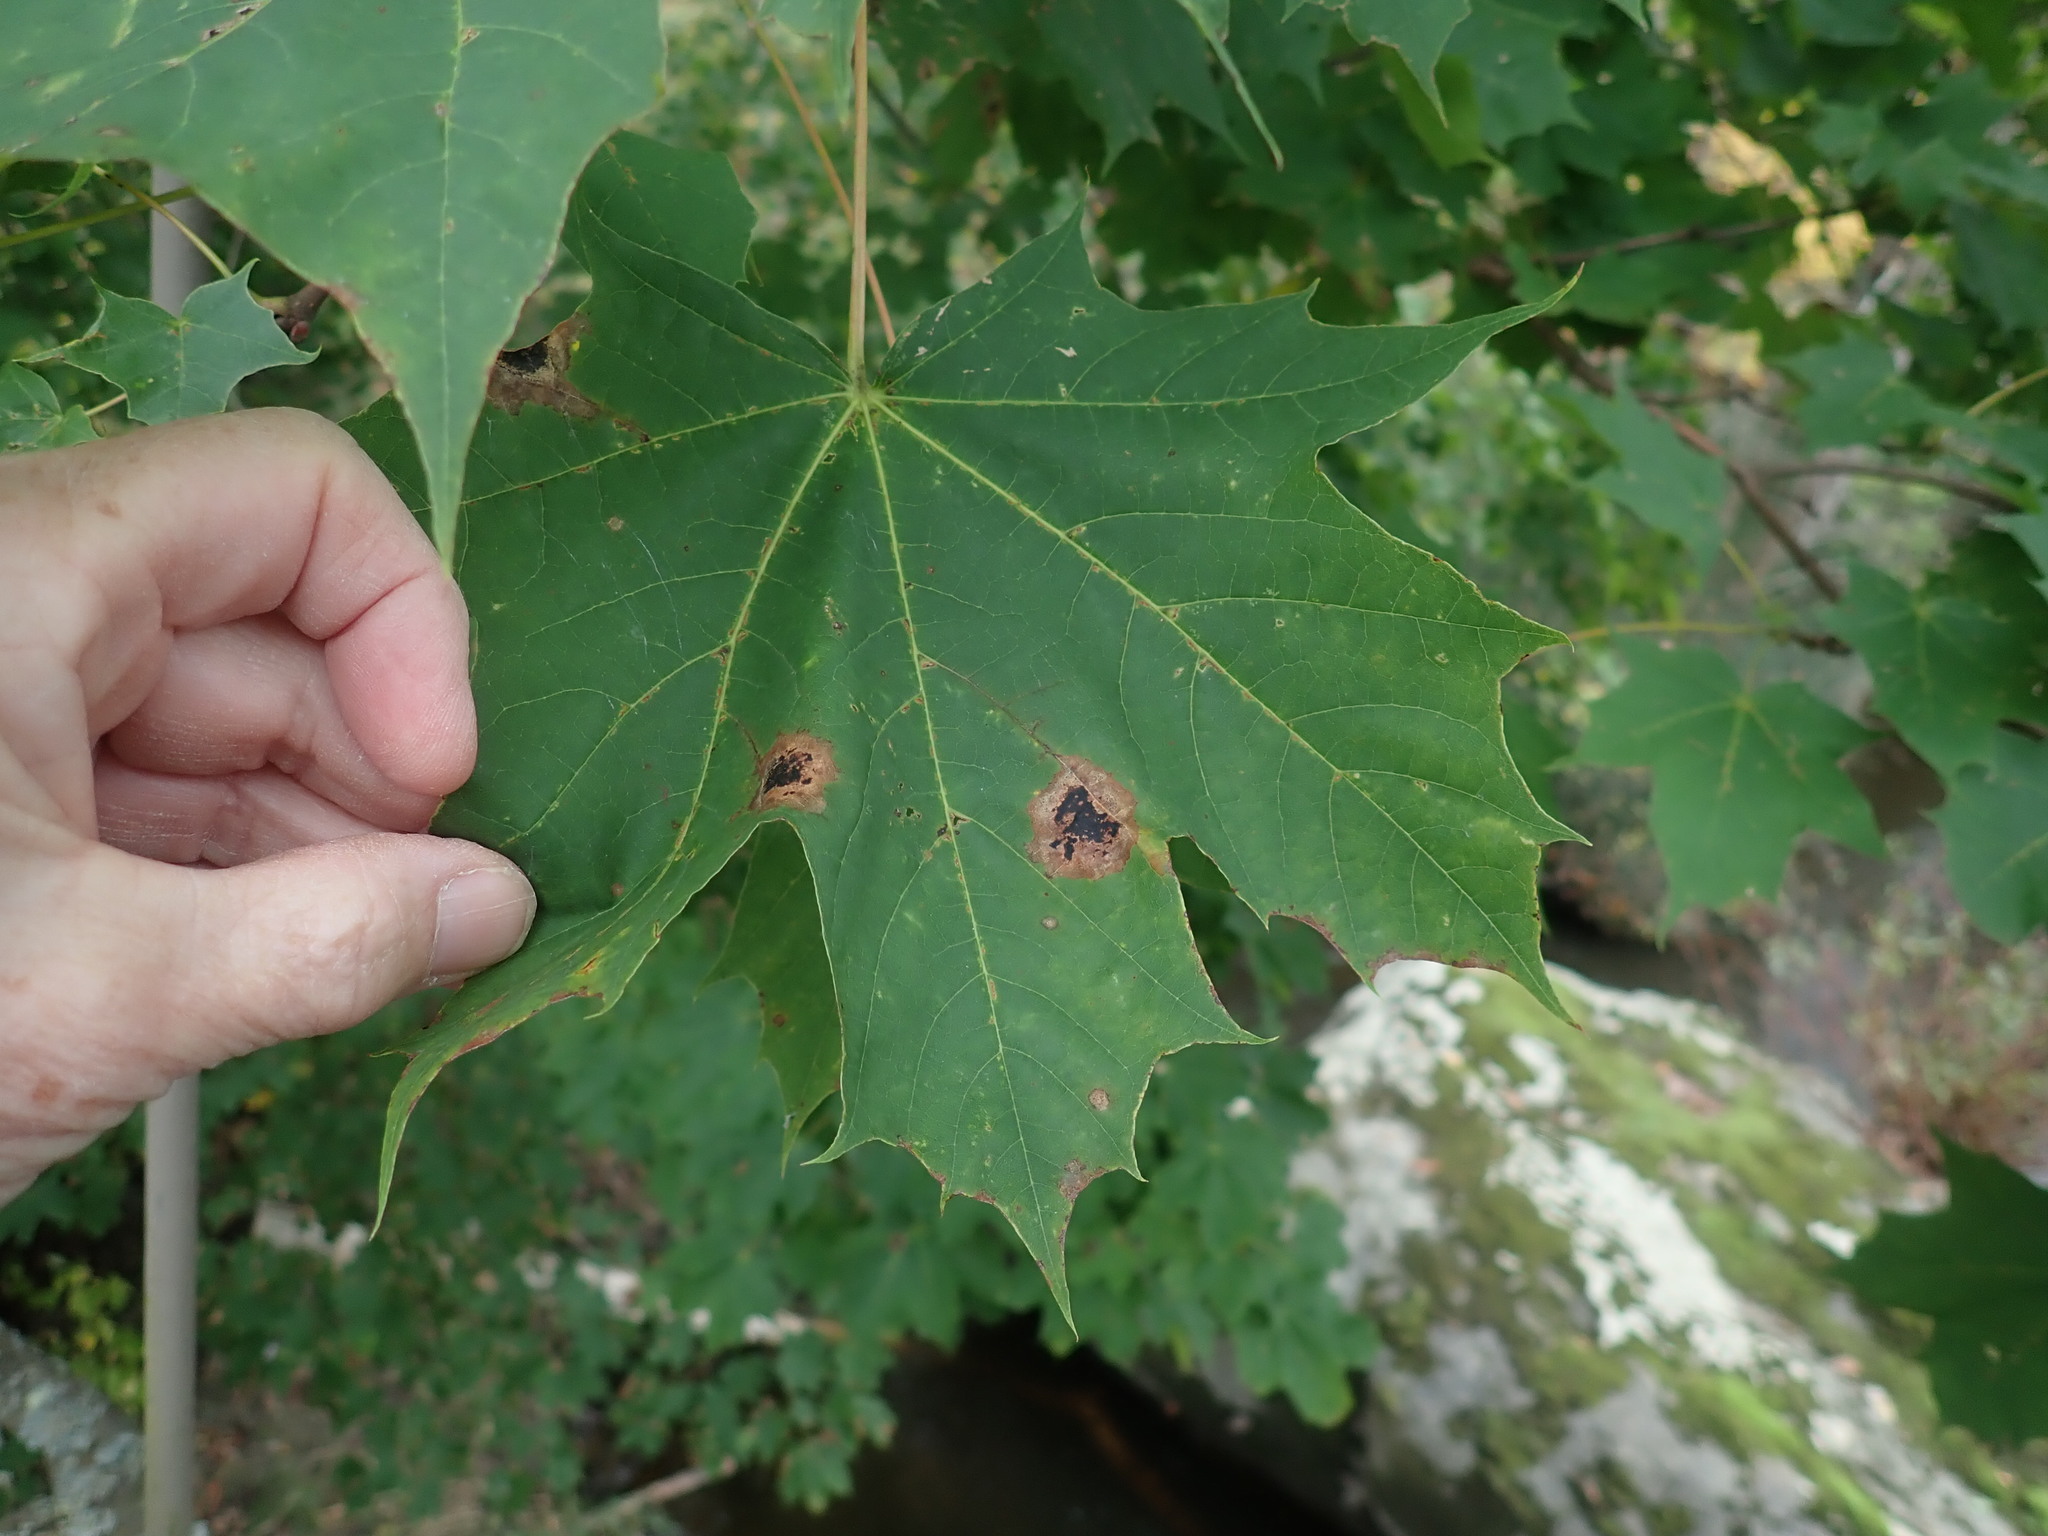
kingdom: Plantae
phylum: Tracheophyta
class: Magnoliopsida
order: Sapindales
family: Sapindaceae
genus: Acer
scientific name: Acer platanoides
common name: Norway maple
